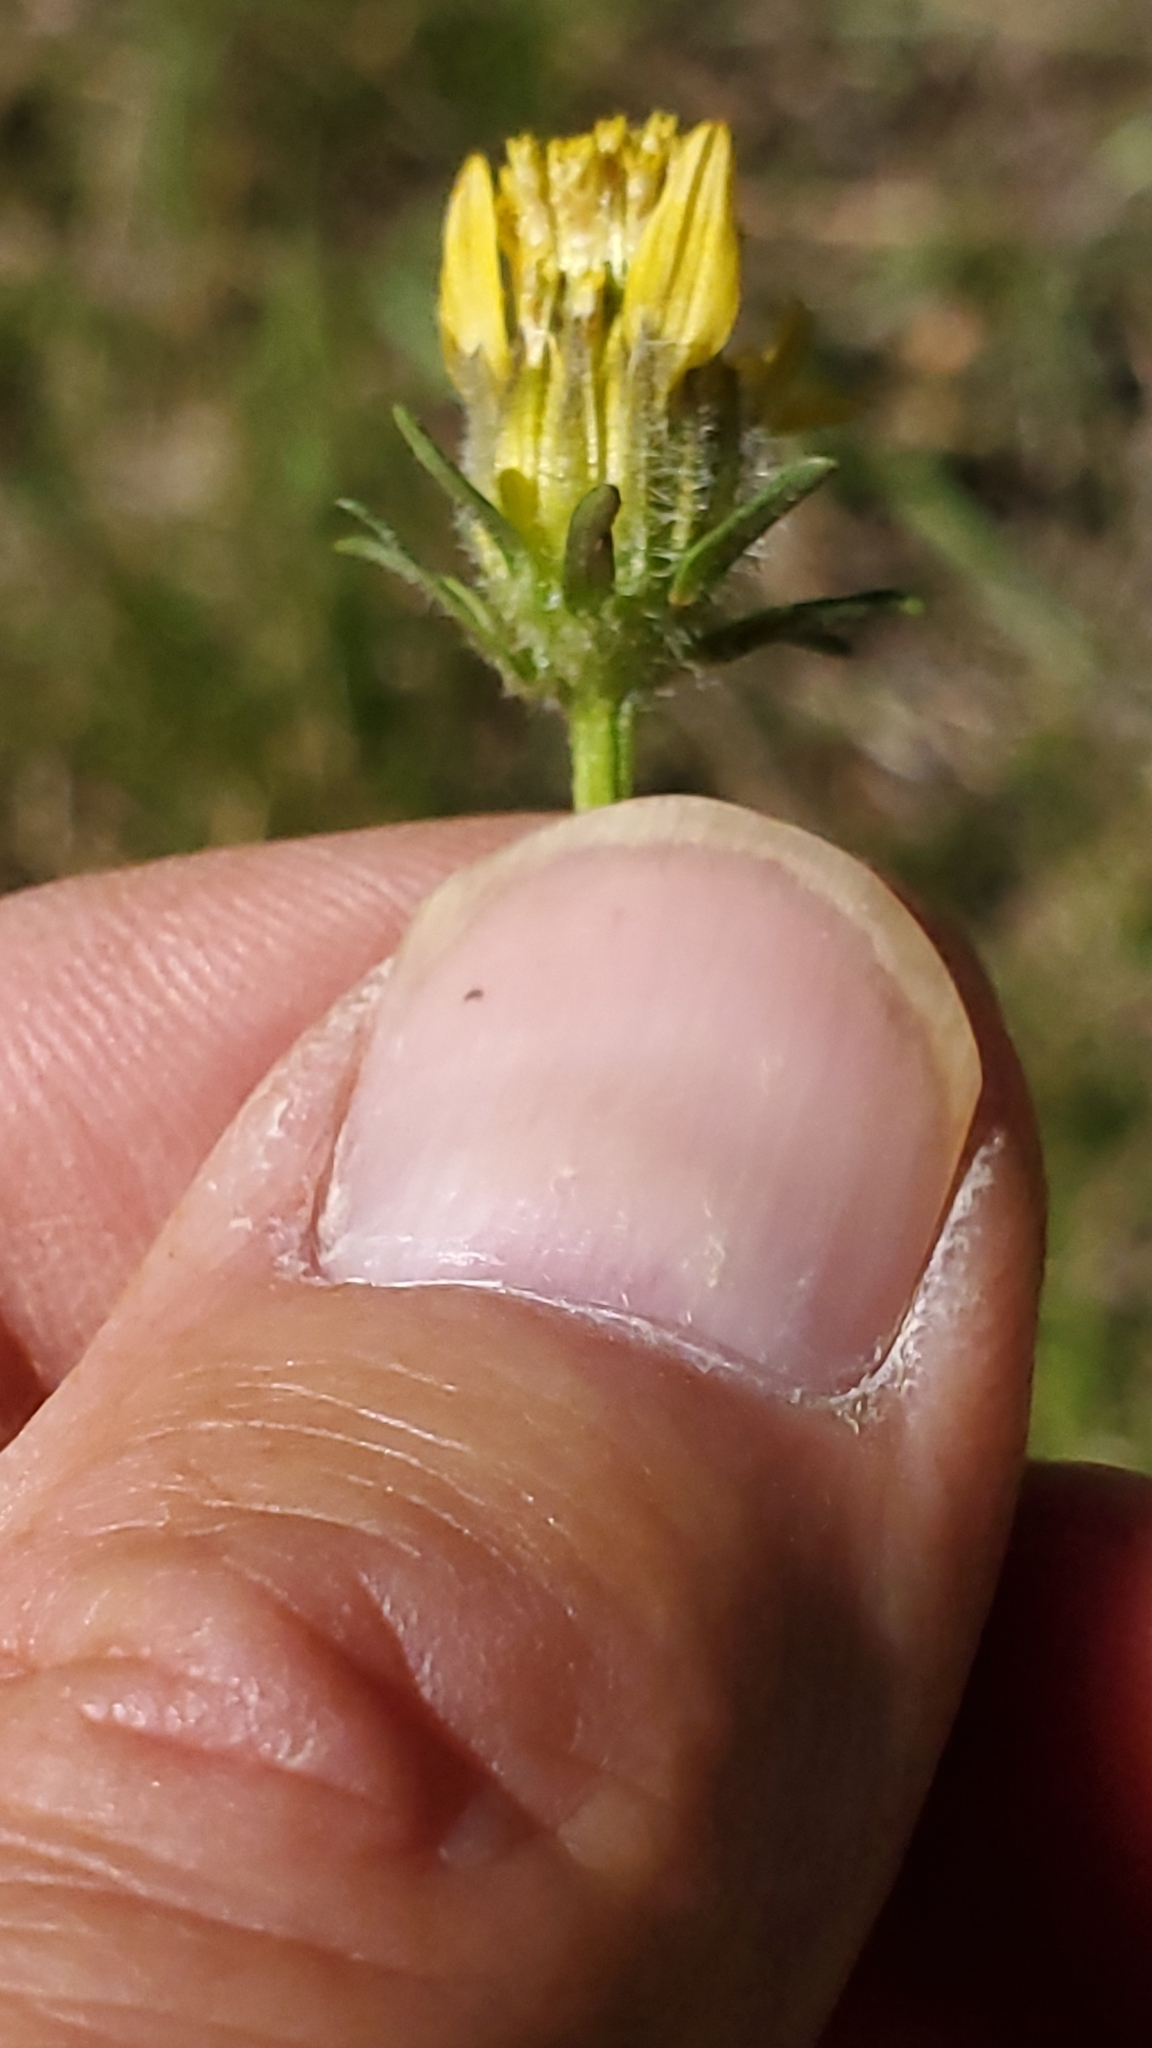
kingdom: Plantae
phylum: Tracheophyta
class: Magnoliopsida
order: Asterales
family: Asteraceae
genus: Bidens
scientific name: Bidens tenuisecta
